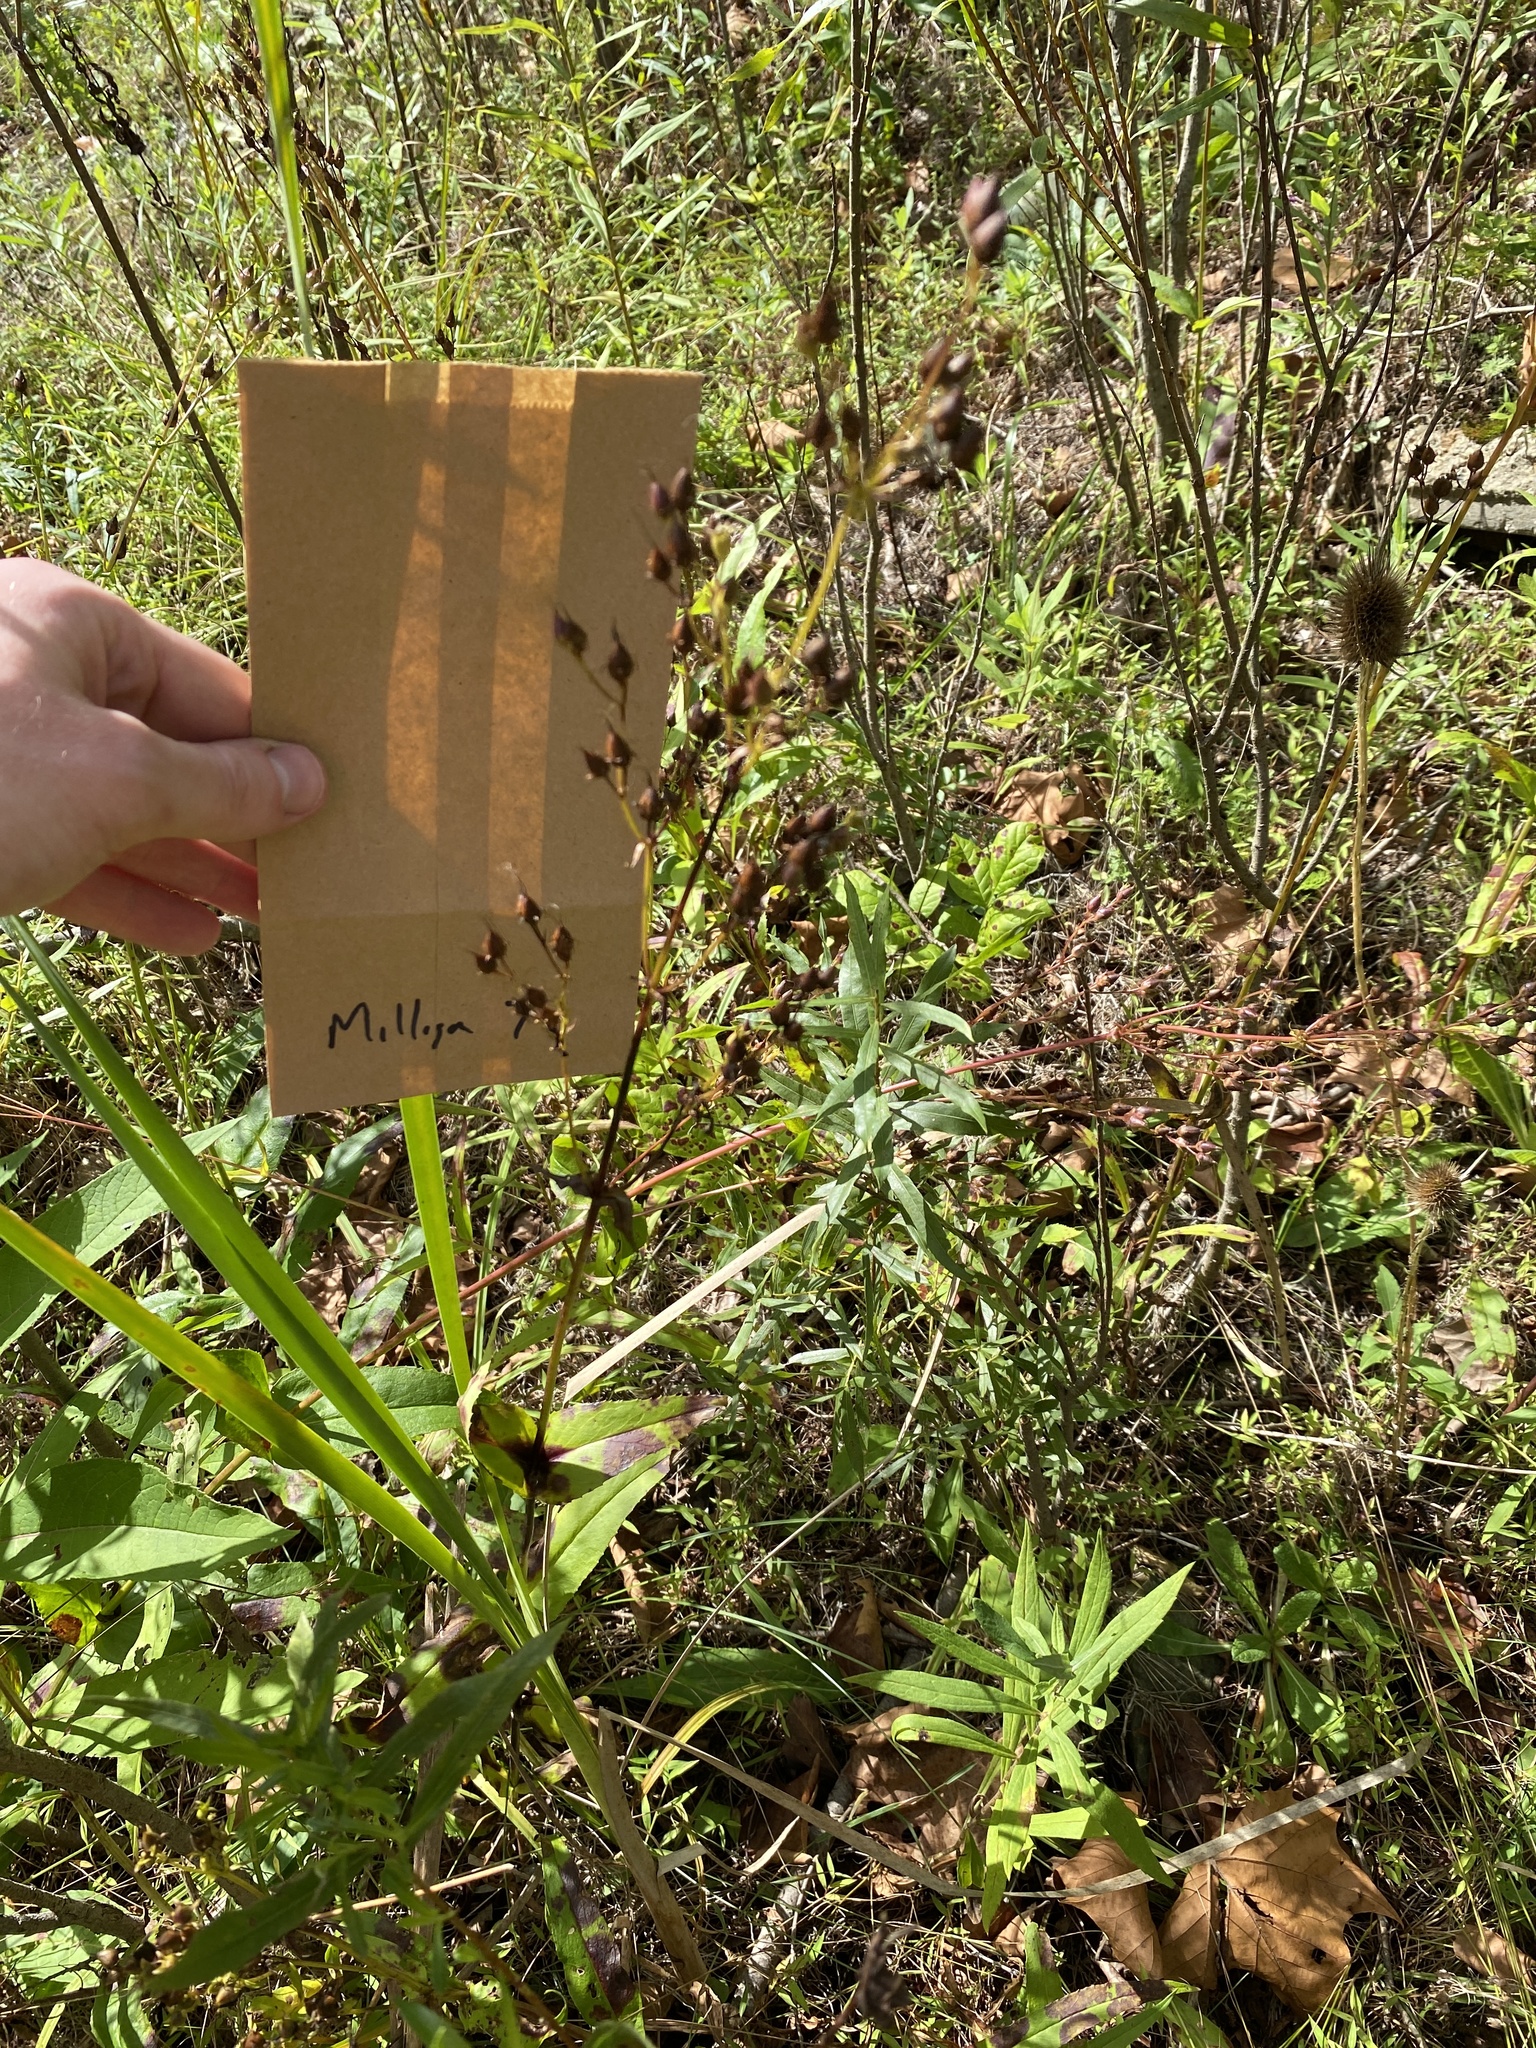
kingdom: Plantae
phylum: Tracheophyta
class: Magnoliopsida
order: Lamiales
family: Plantaginaceae
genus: Penstemon
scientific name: Penstemon digitalis
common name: Foxglove beardtongue
